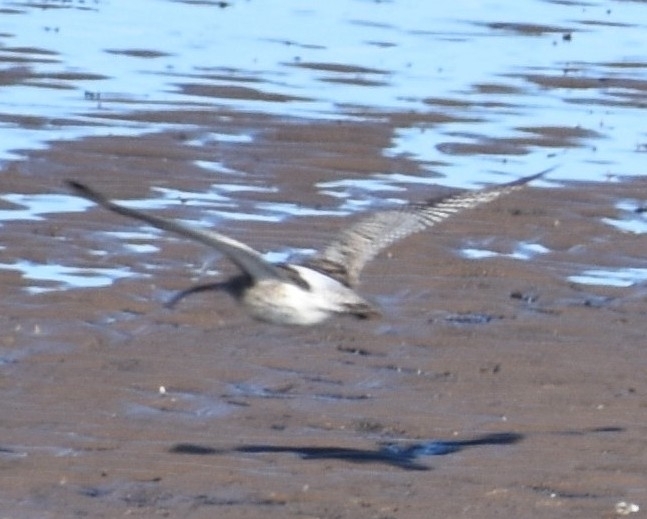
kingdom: Animalia
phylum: Chordata
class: Aves
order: Charadriiformes
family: Scolopacidae
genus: Numenius
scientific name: Numenius arquata
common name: Eurasian curlew
